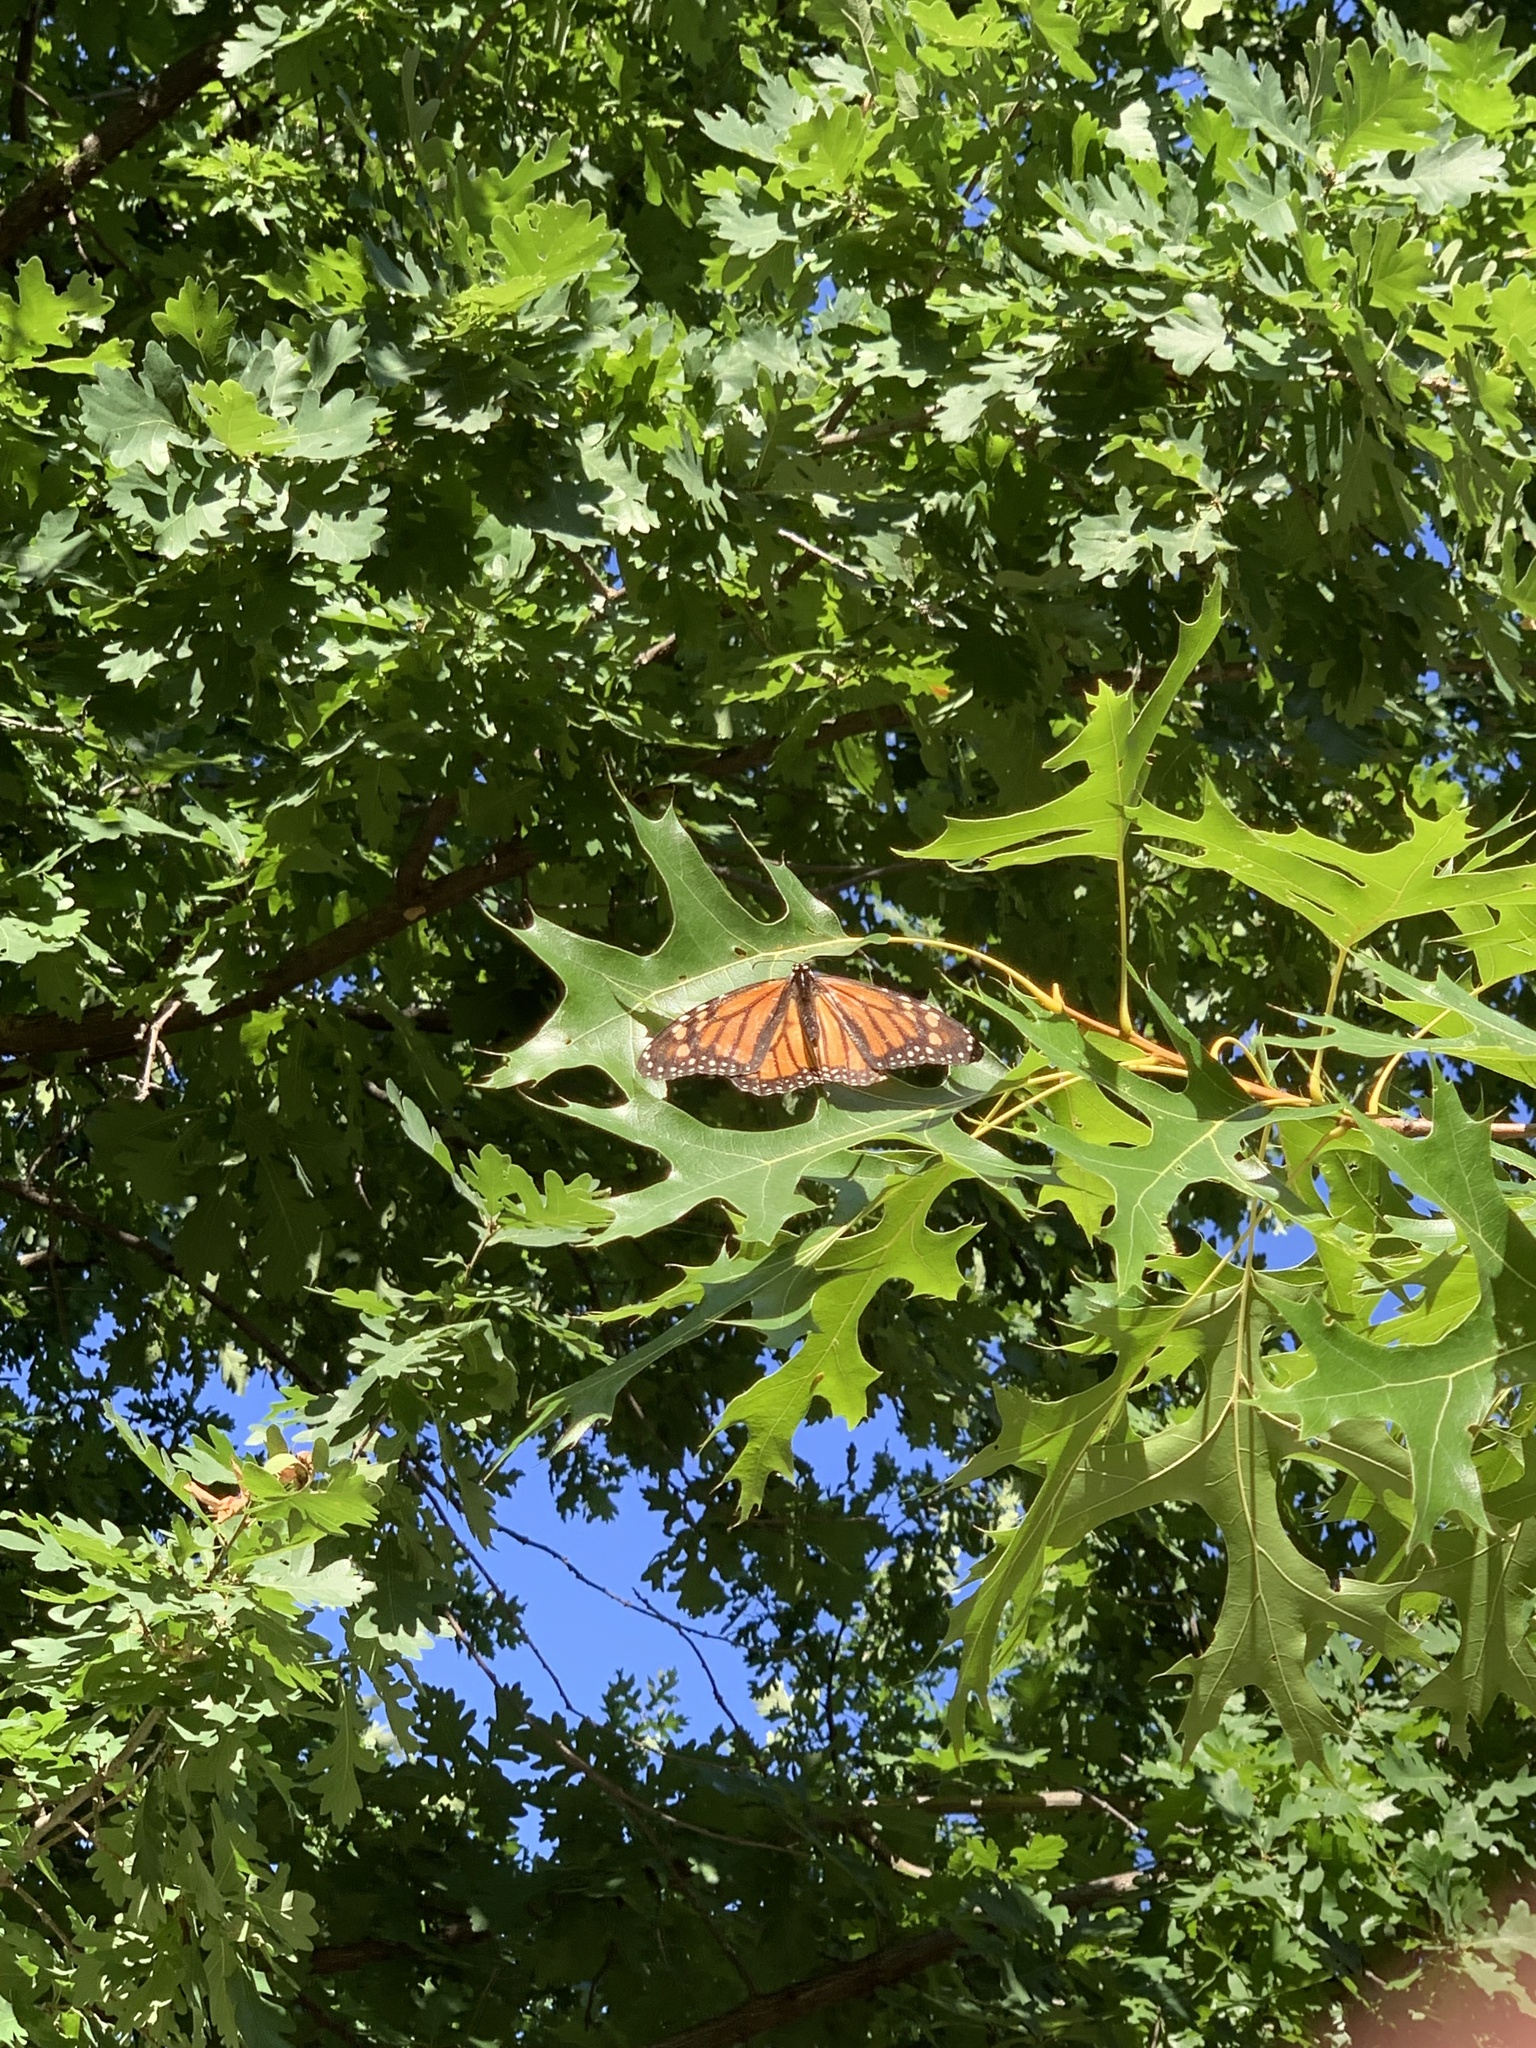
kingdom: Animalia
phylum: Arthropoda
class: Insecta
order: Lepidoptera
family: Nymphalidae
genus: Danaus
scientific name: Danaus plexippus
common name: Monarch
